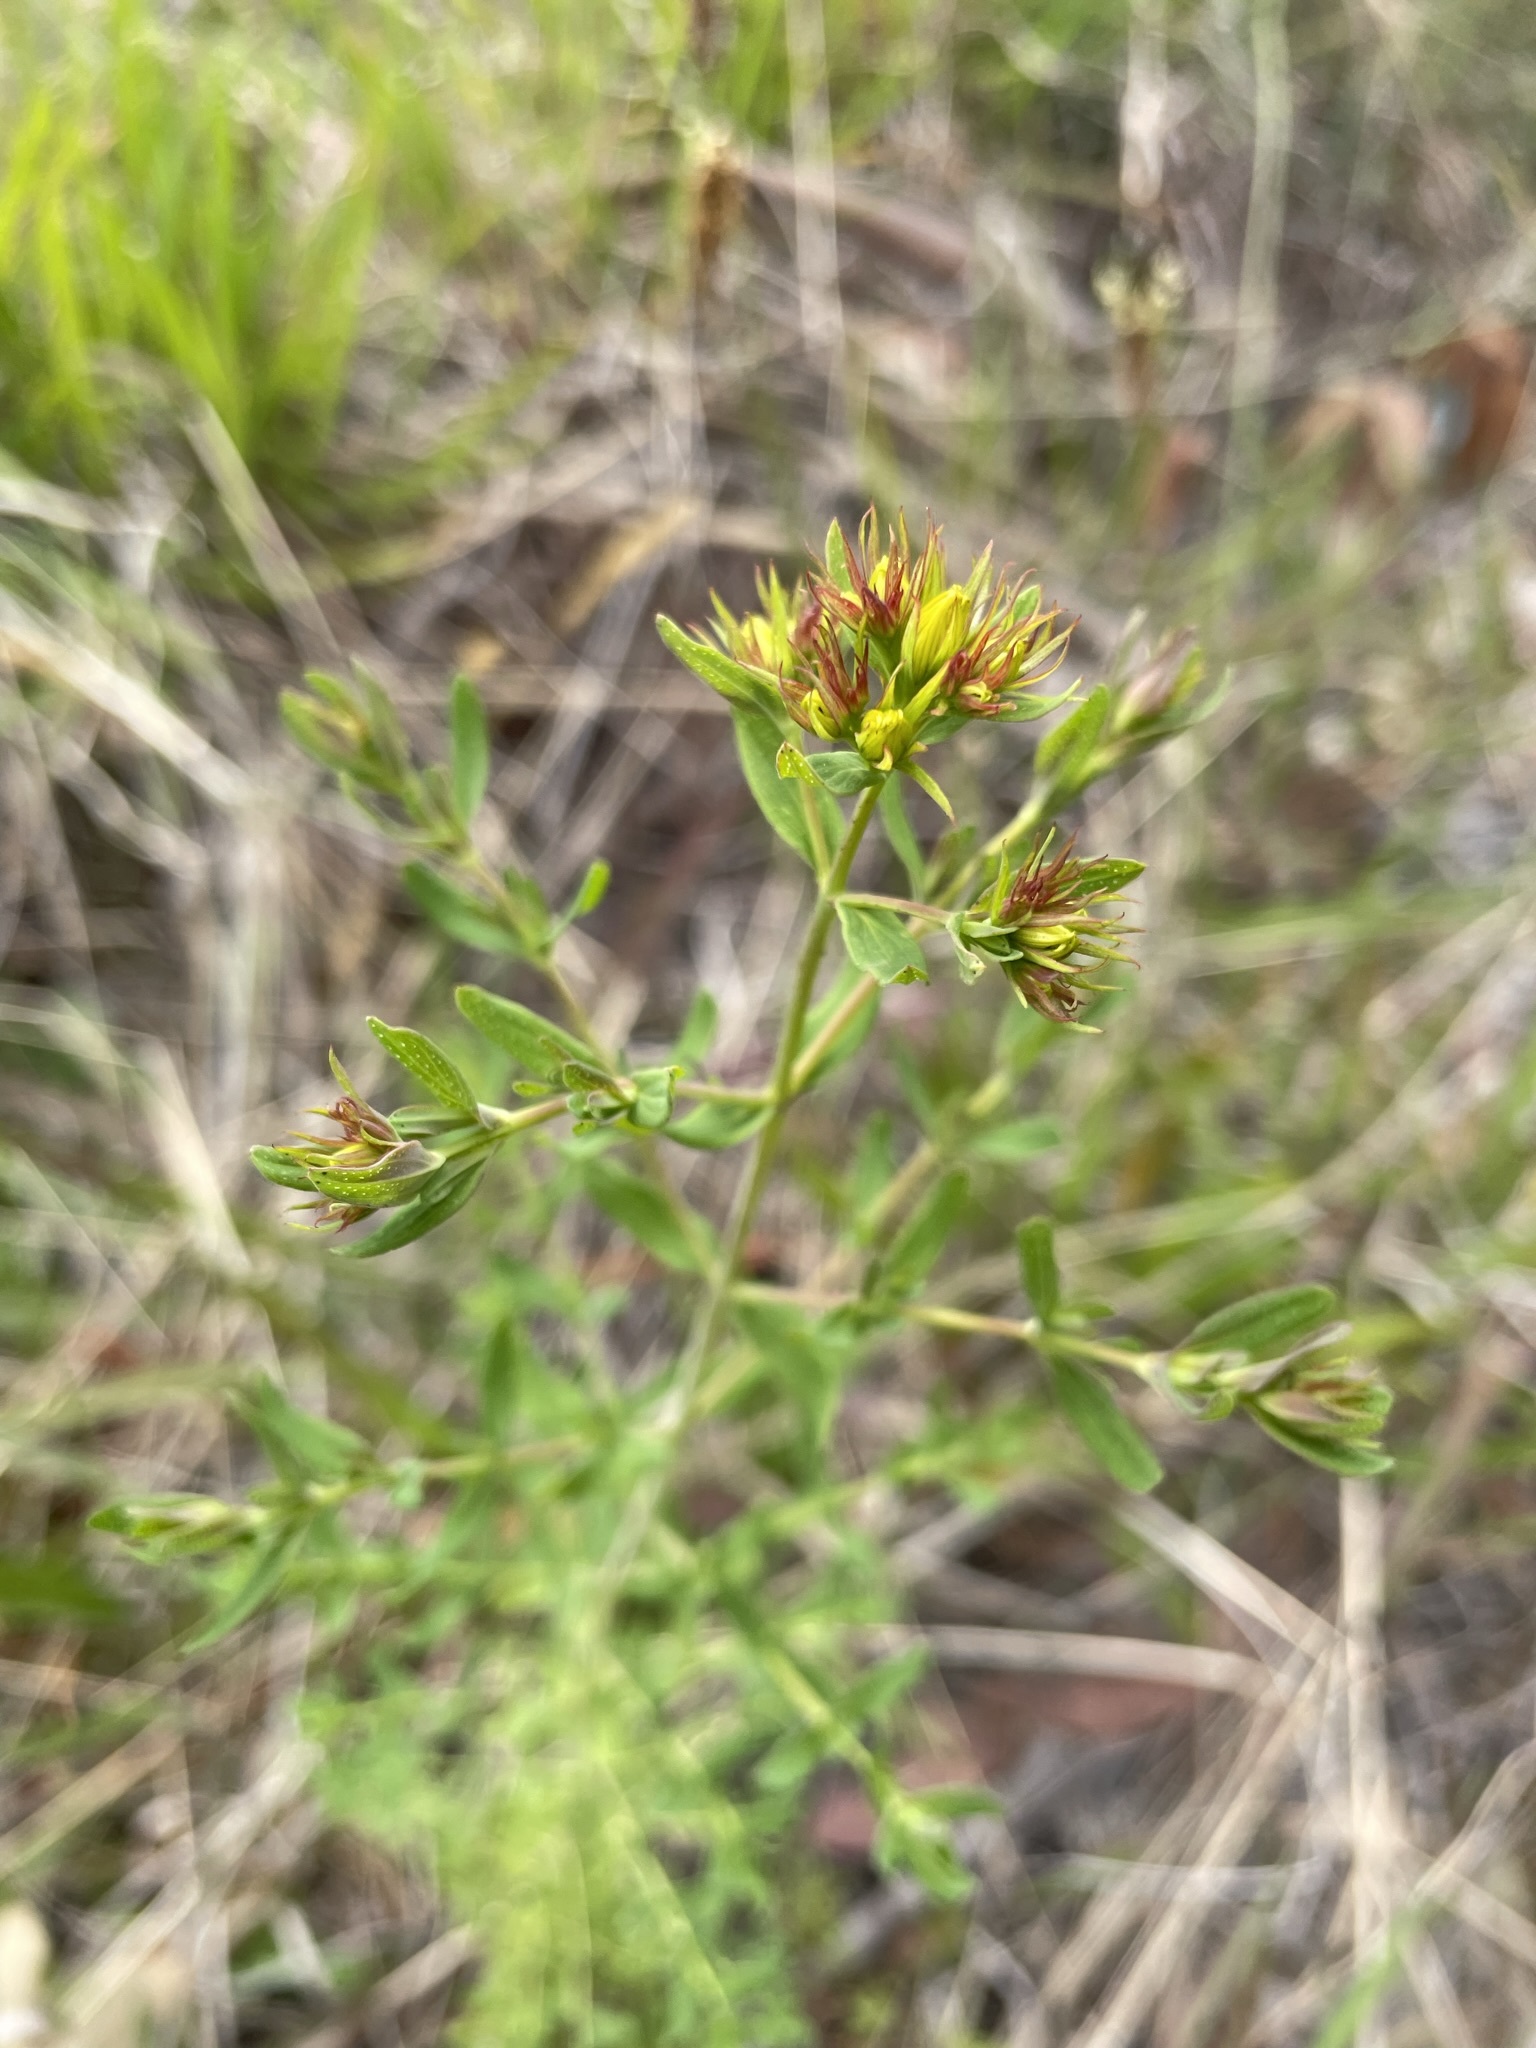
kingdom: Plantae
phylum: Tracheophyta
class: Magnoliopsida
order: Malpighiales
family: Hypericaceae
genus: Hypericum
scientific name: Hypericum veronense
